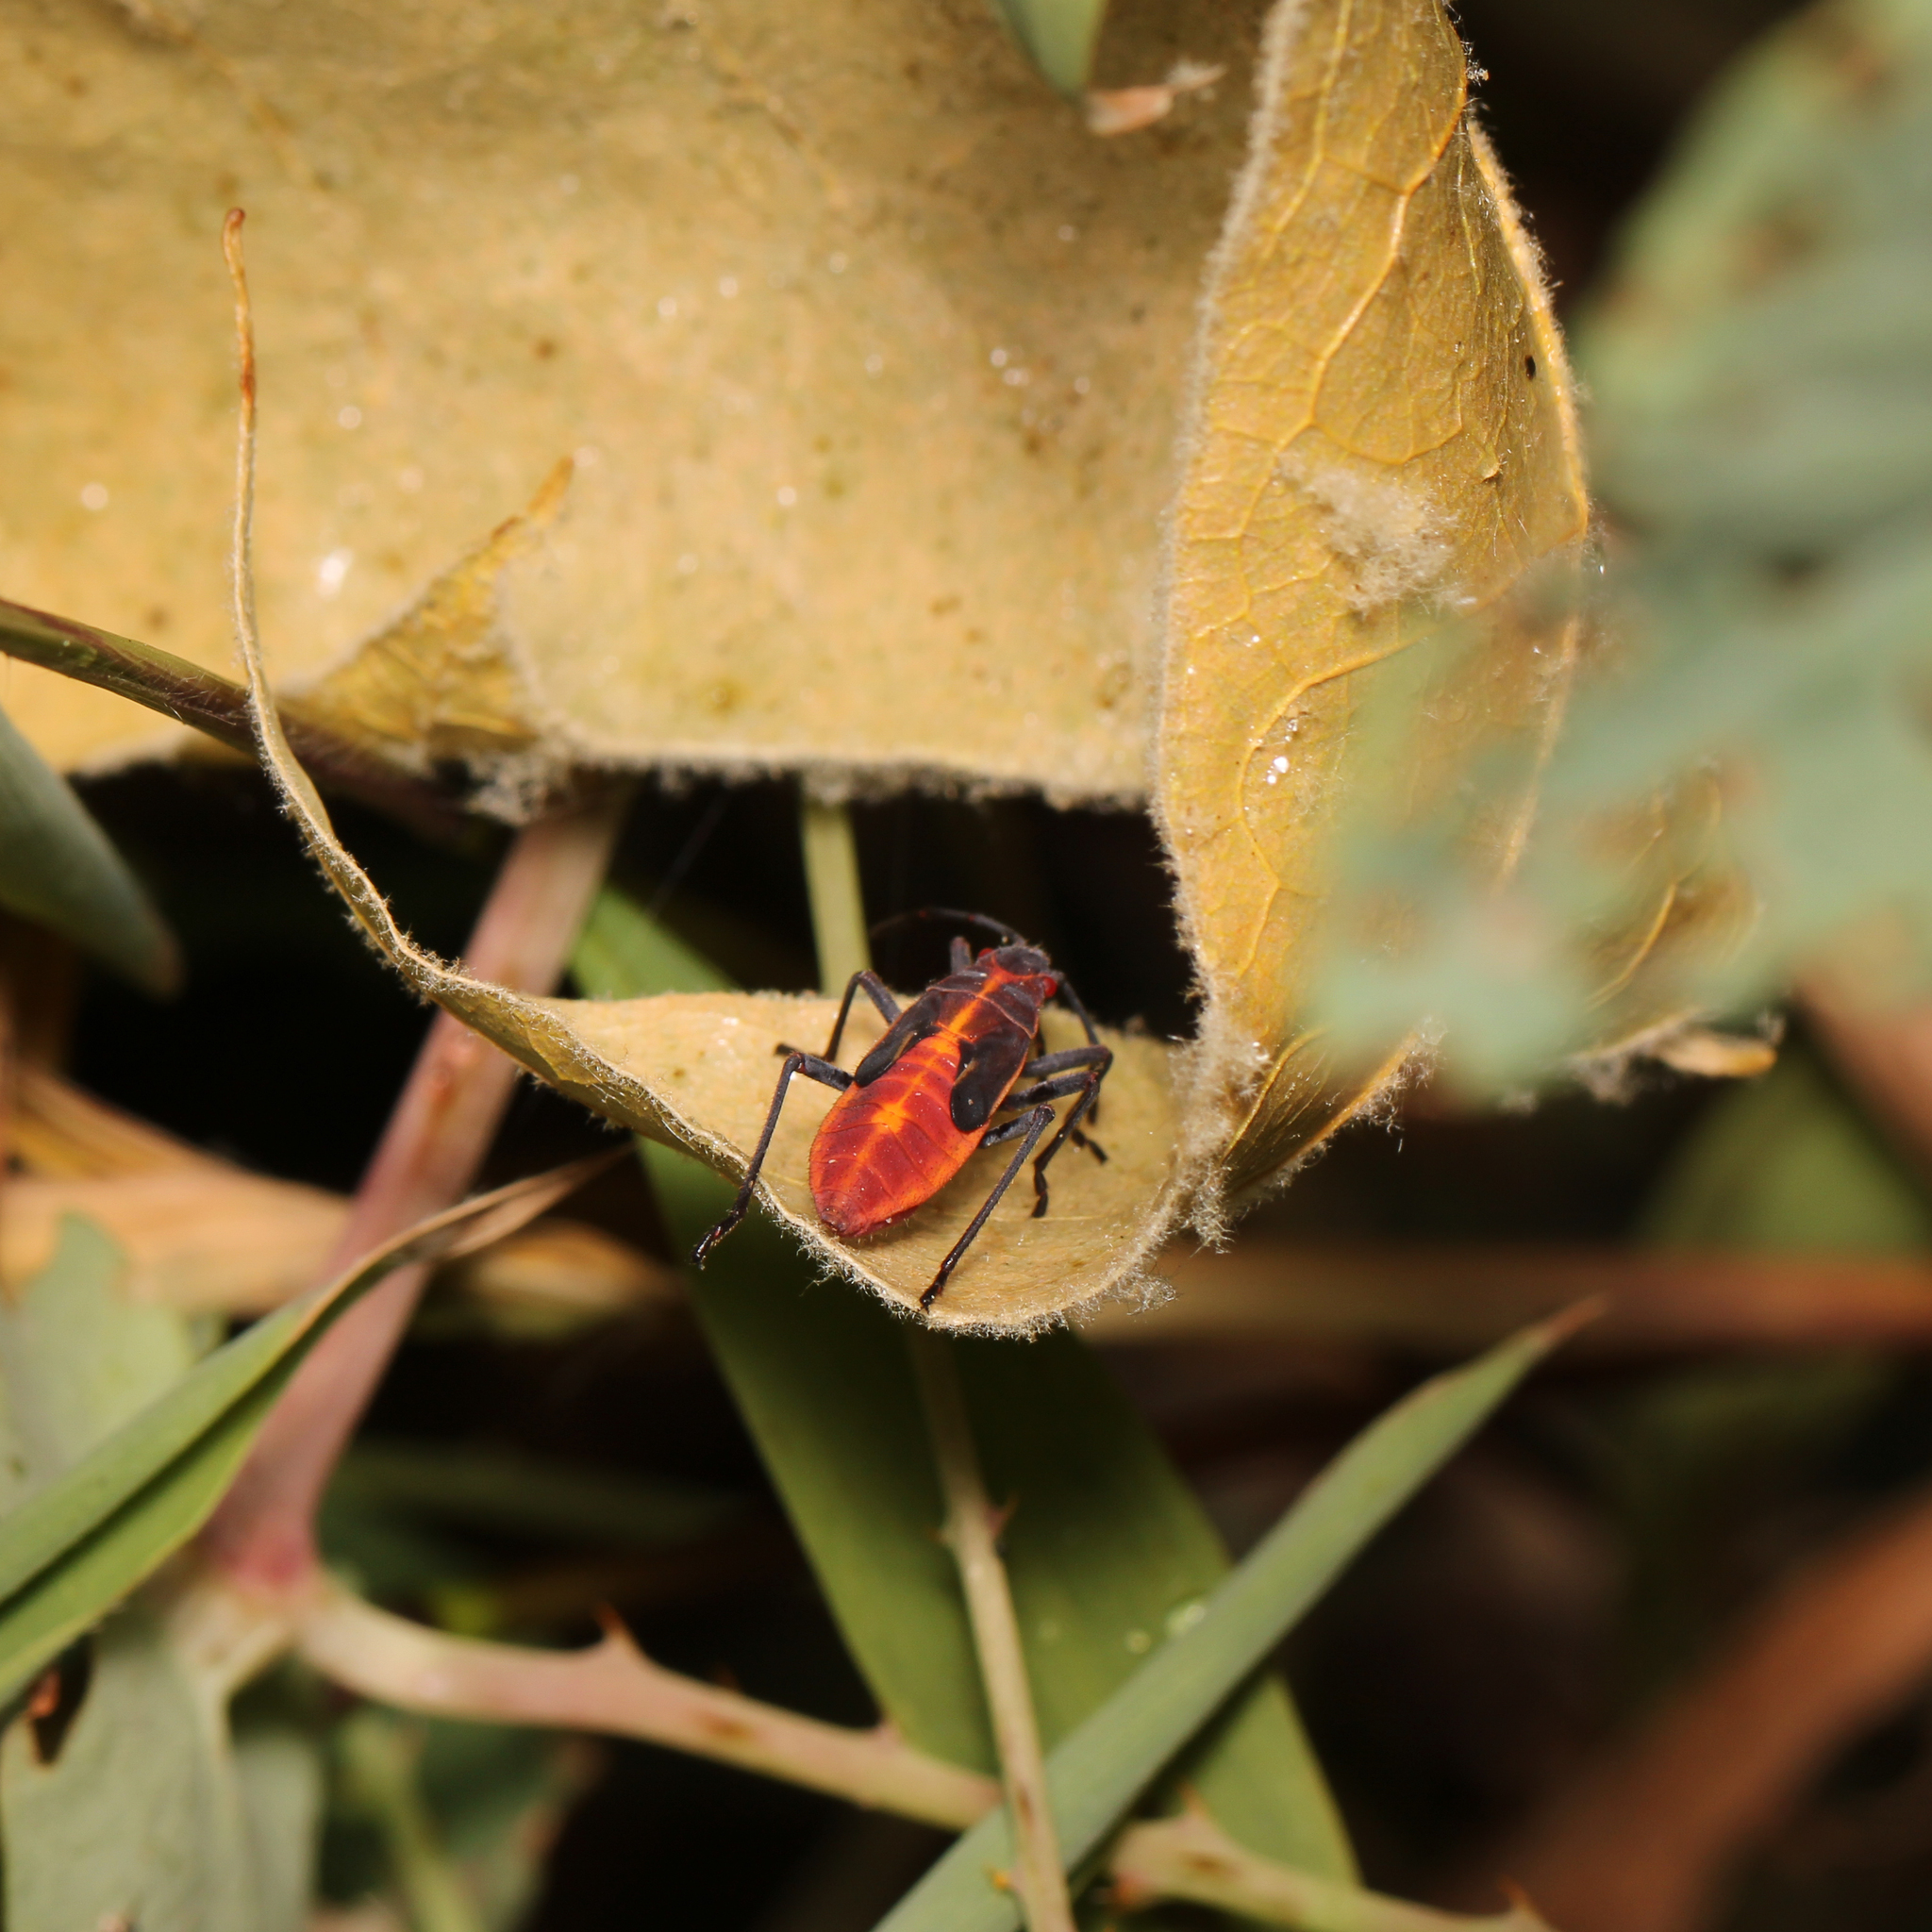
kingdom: Animalia
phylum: Arthropoda
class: Insecta
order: Hemiptera
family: Rhopalidae
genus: Boisea
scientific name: Boisea trivittata
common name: Boxelder bug
